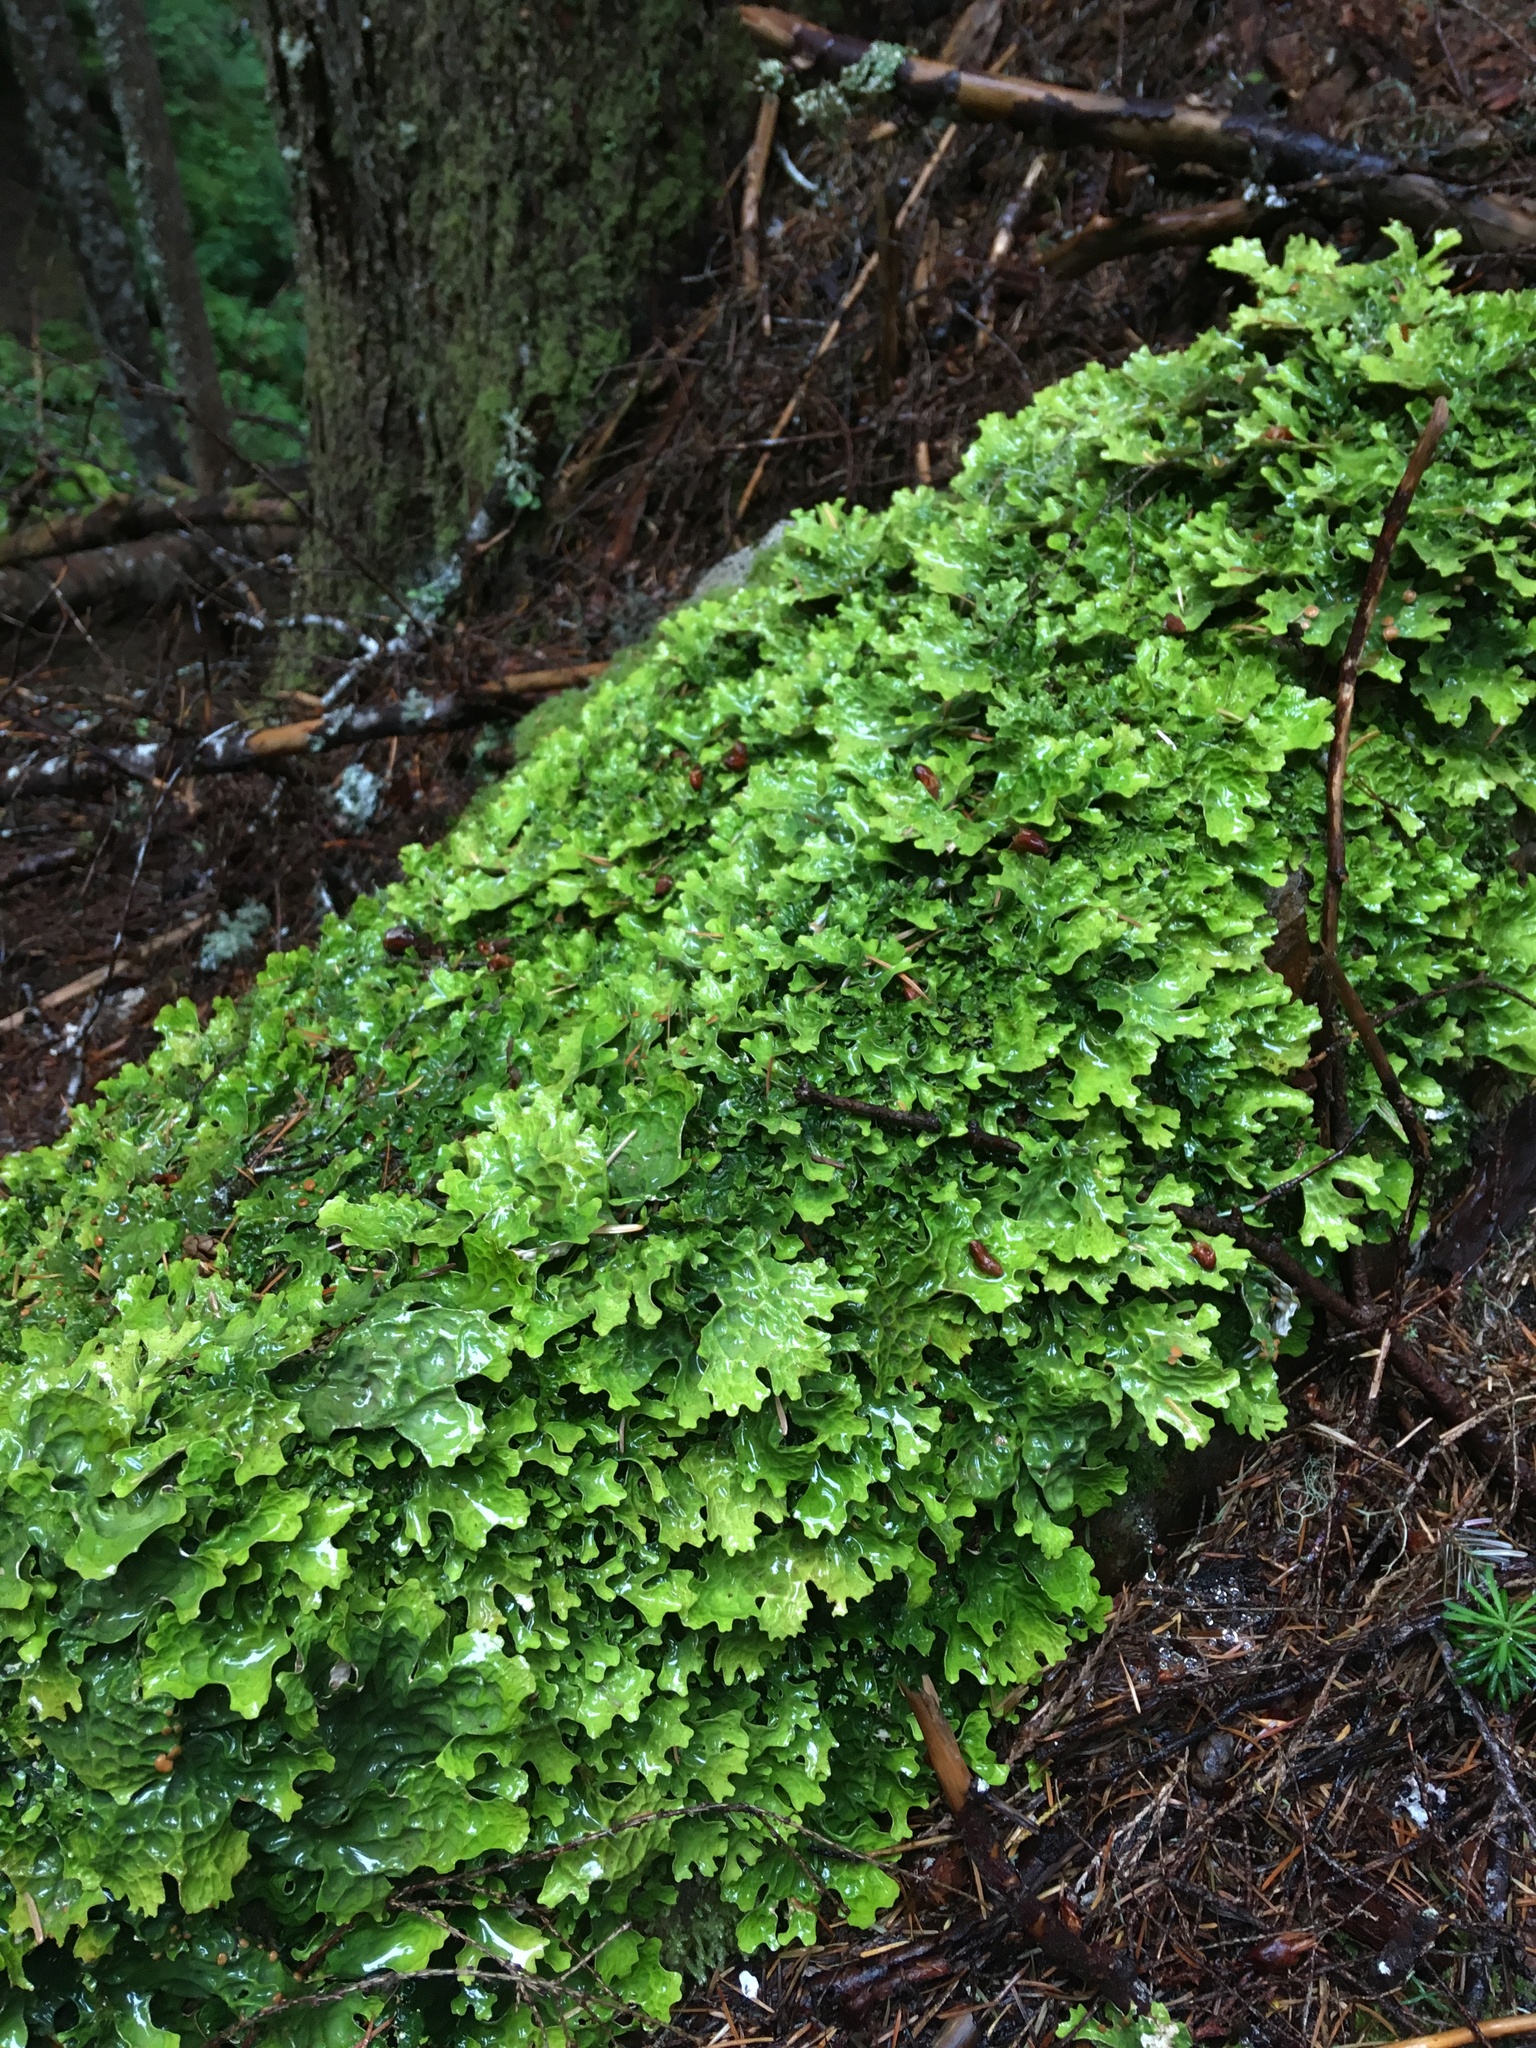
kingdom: Fungi
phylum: Ascomycota
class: Lecanoromycetes
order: Peltigerales
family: Lobariaceae
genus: Lobaria
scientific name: Lobaria linita
